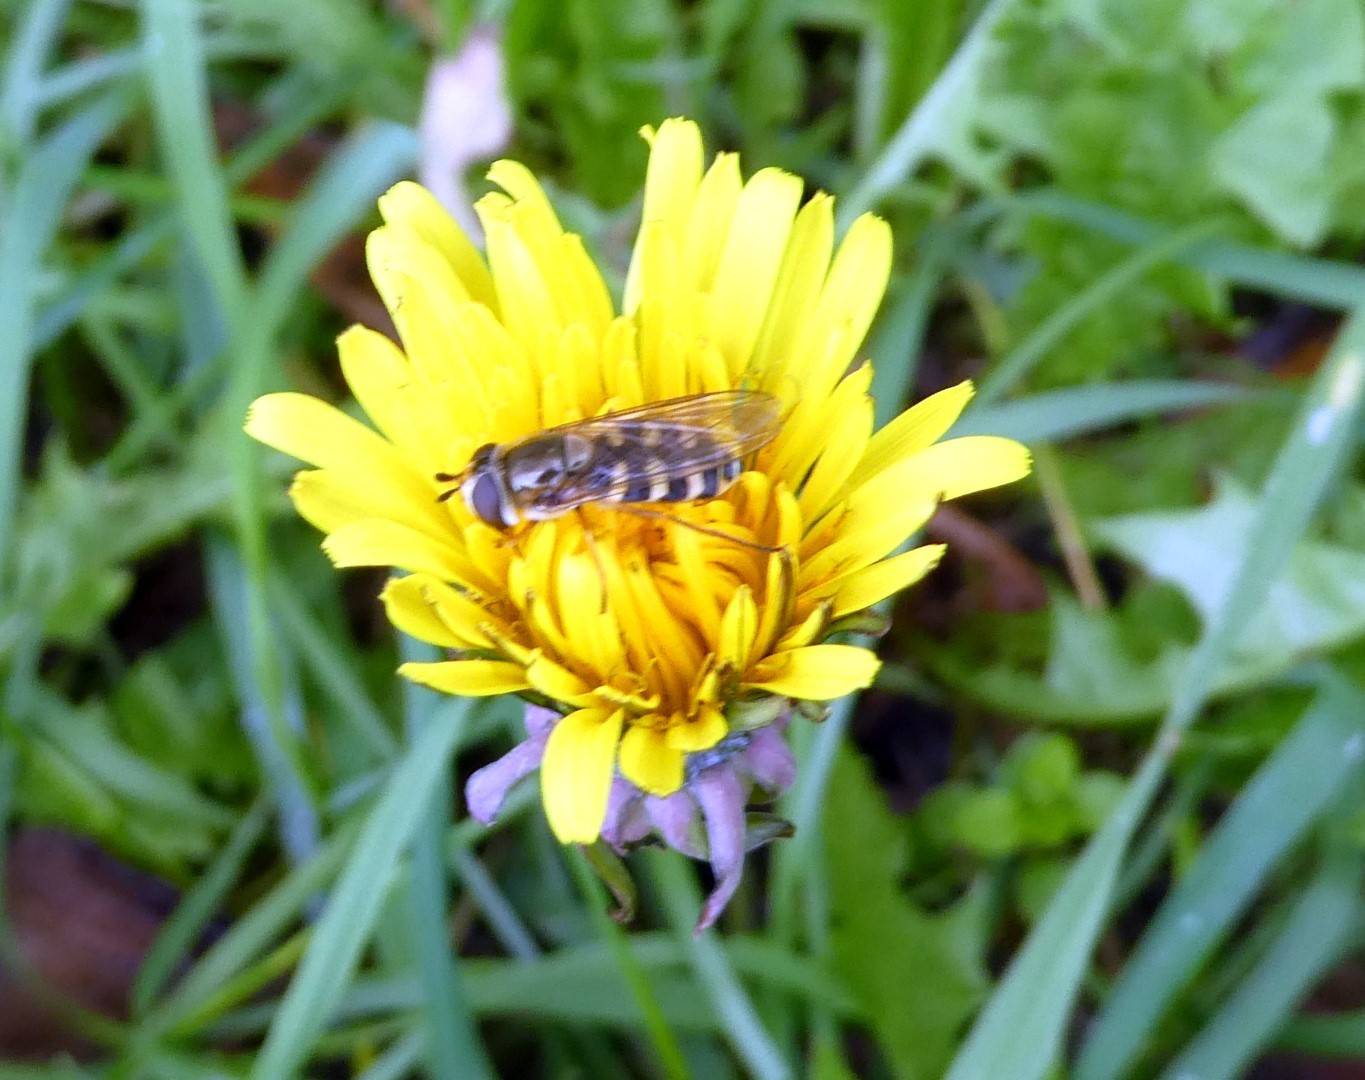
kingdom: Animalia
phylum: Arthropoda
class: Insecta
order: Diptera
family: Syrphidae
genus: Eupeodes
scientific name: Eupeodes corollae
